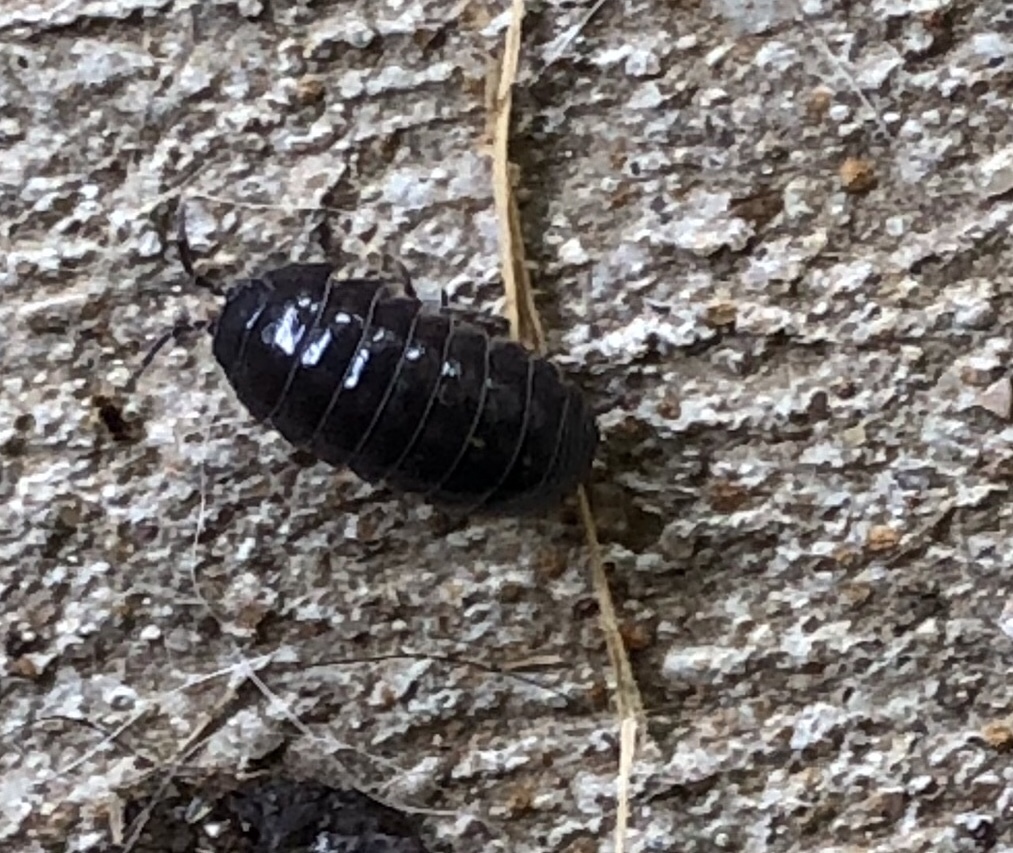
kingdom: Animalia
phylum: Arthropoda
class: Malacostraca
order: Isopoda
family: Armadillidiidae
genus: Armadillidium
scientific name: Armadillidium vulgare
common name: Common pill woodlouse
